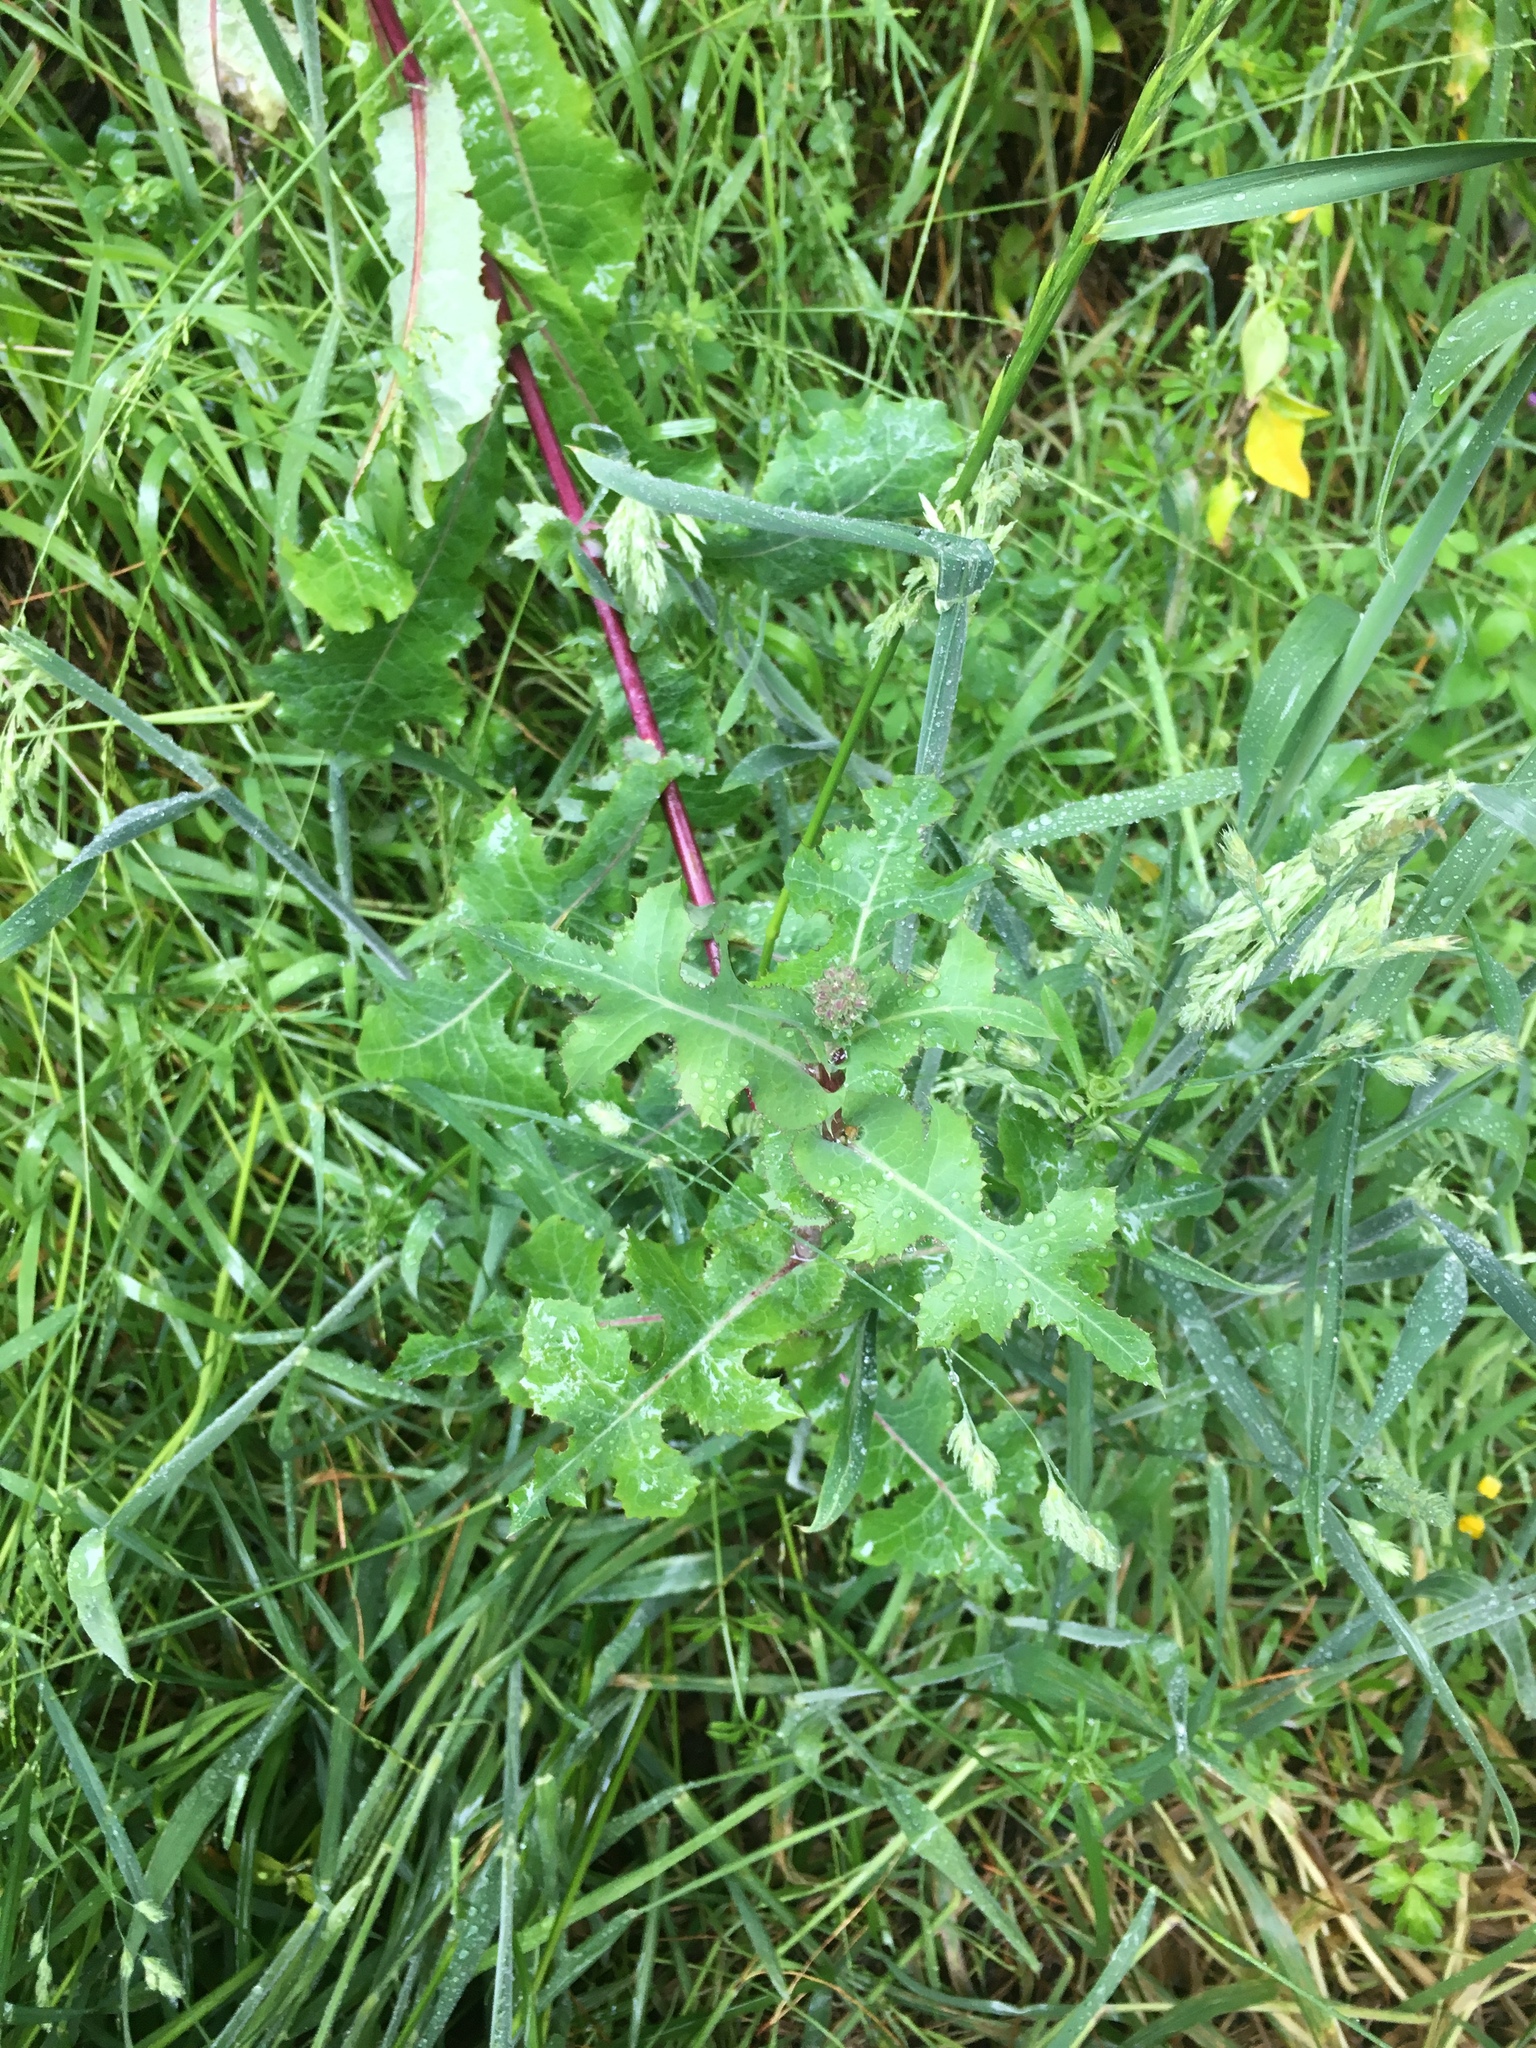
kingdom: Plantae
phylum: Tracheophyta
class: Magnoliopsida
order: Asterales
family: Asteraceae
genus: Sonchus
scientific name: Sonchus asper
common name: Prickly sow-thistle
